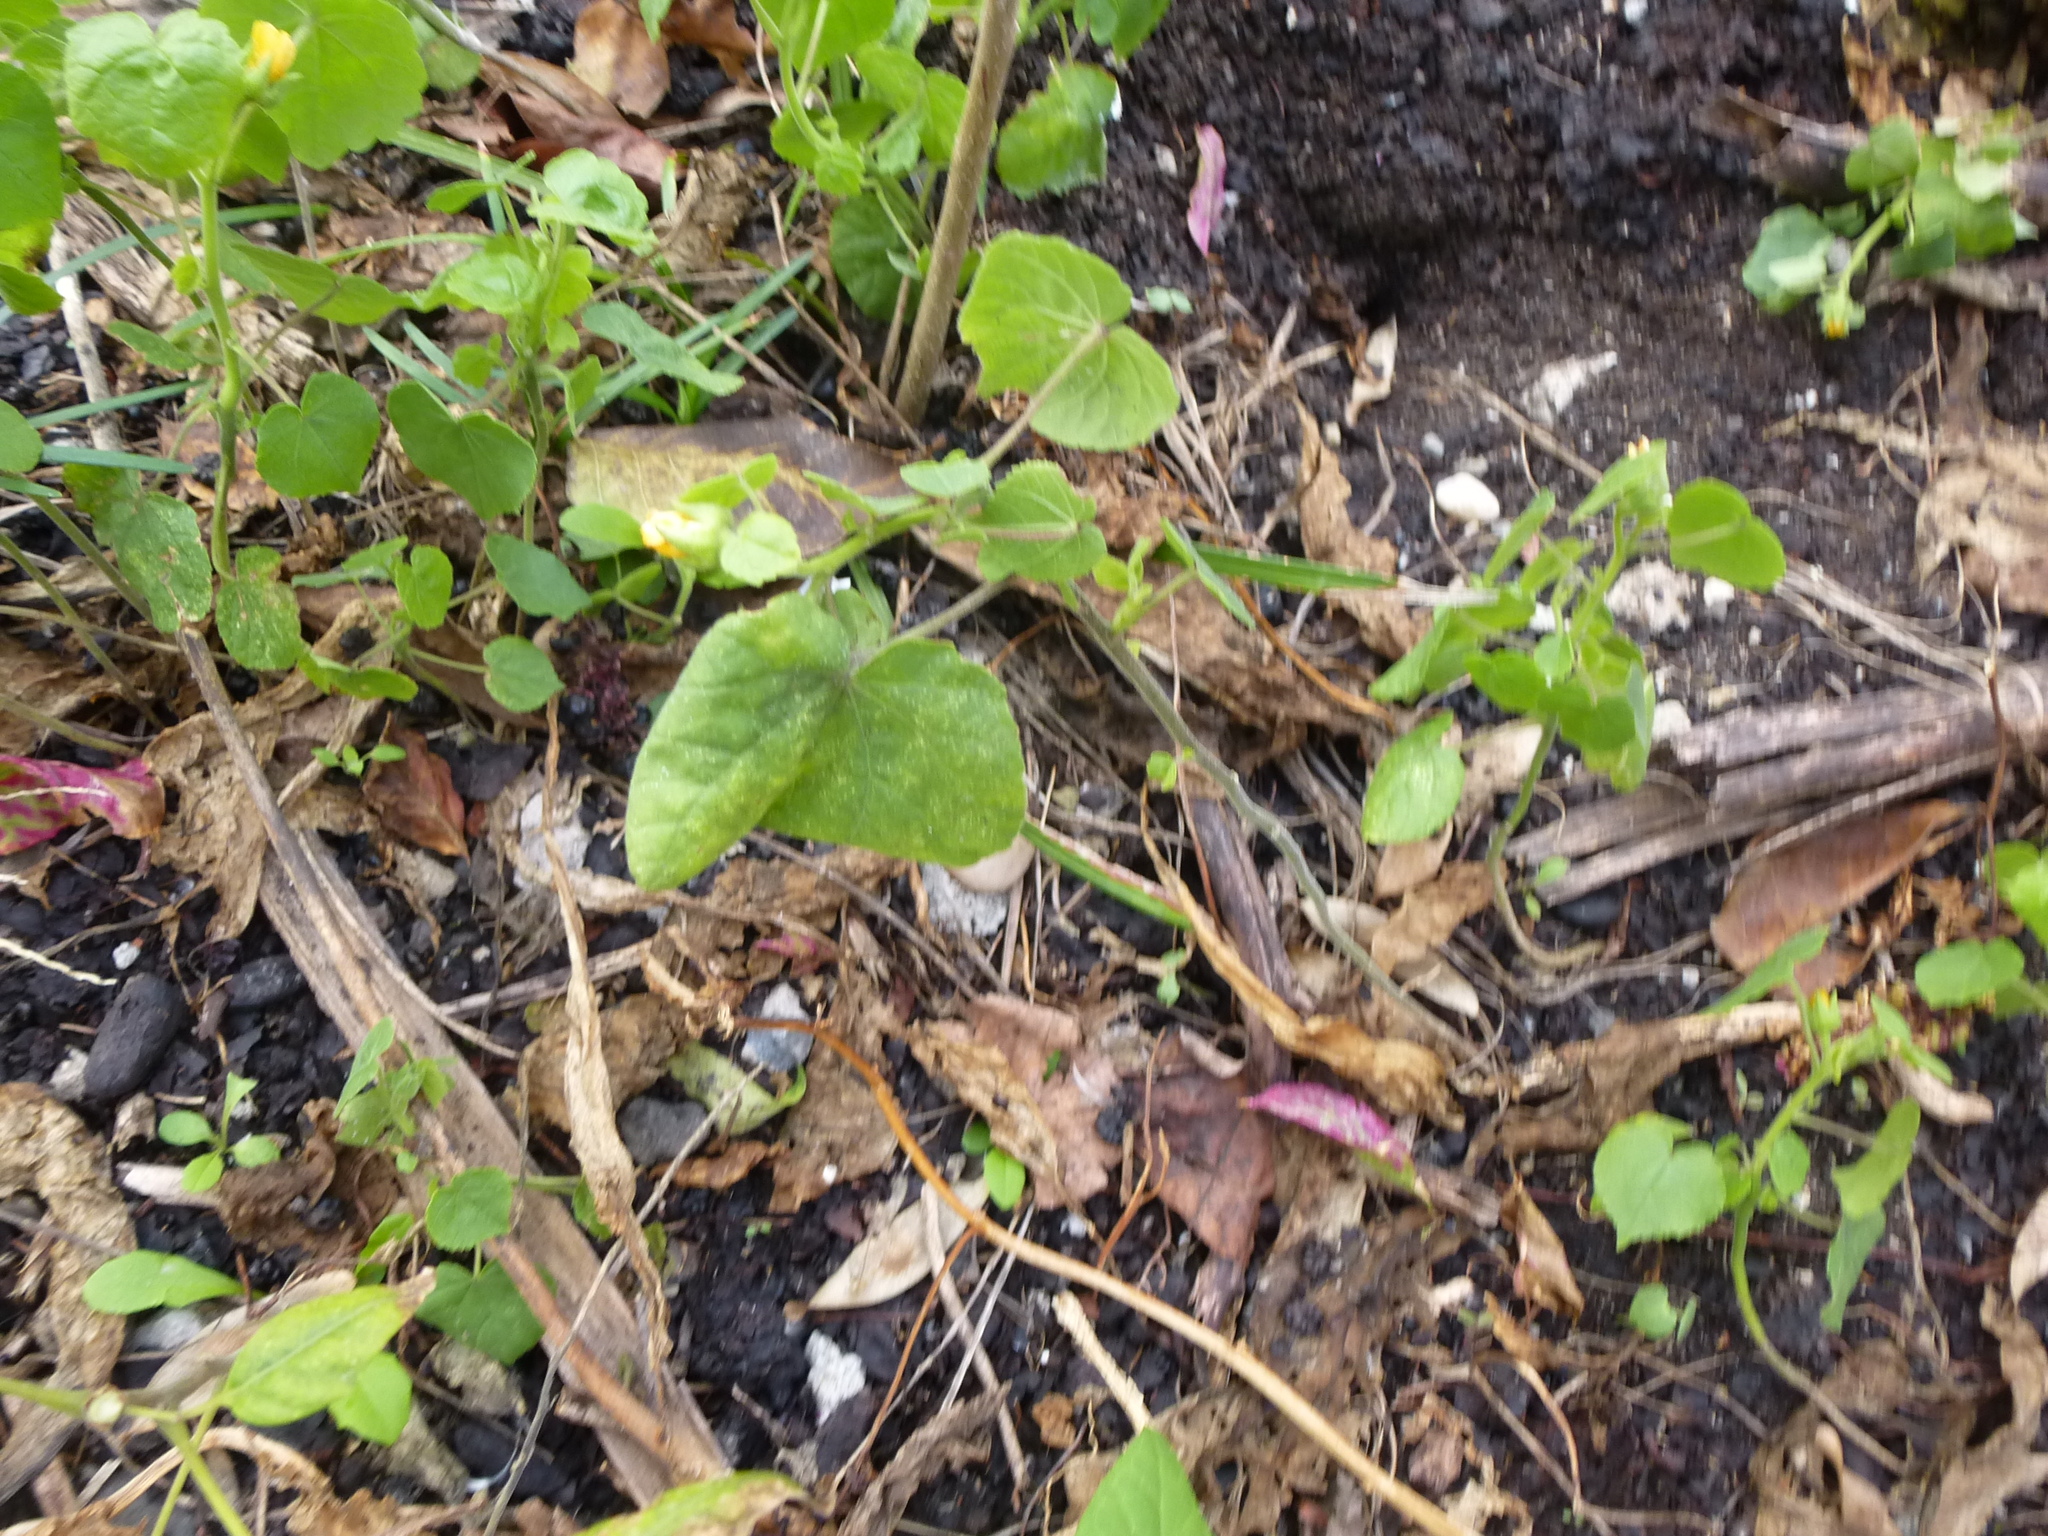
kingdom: Animalia
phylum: Chordata
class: Aves
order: Passeriformes
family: Parulidae
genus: Geothlypis
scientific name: Geothlypis trichas
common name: Common yellowthroat
